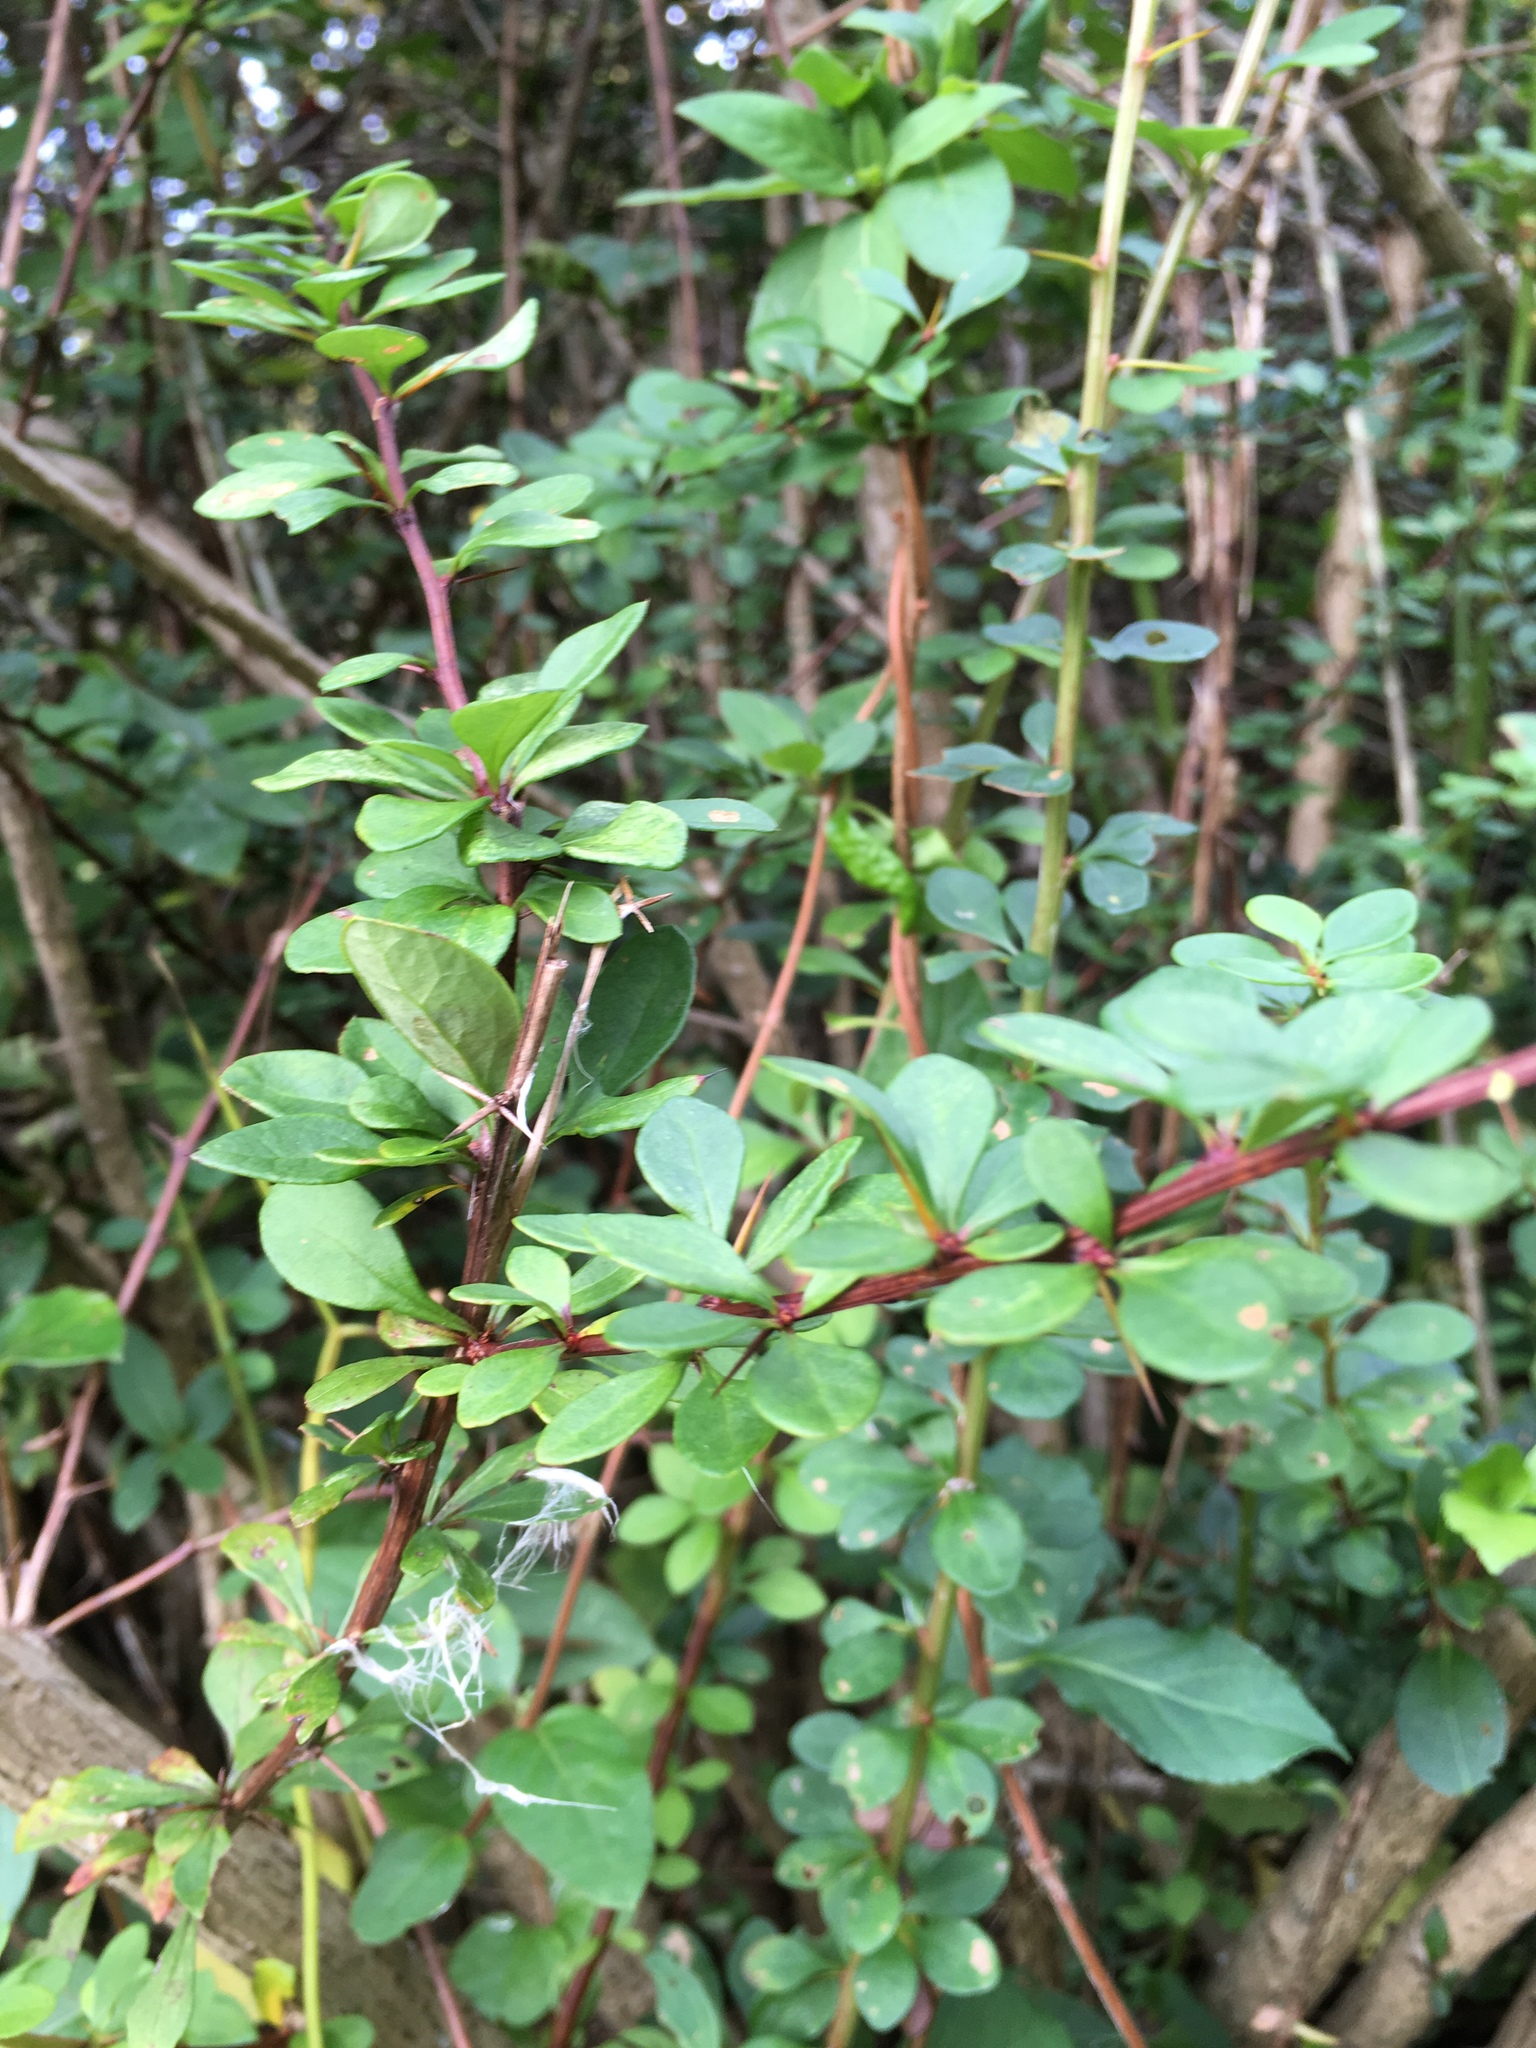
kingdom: Plantae
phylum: Tracheophyta
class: Magnoliopsida
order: Ranunculales
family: Berberidaceae
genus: Berberis
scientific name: Berberis thunbergii
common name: Japanese barberry
